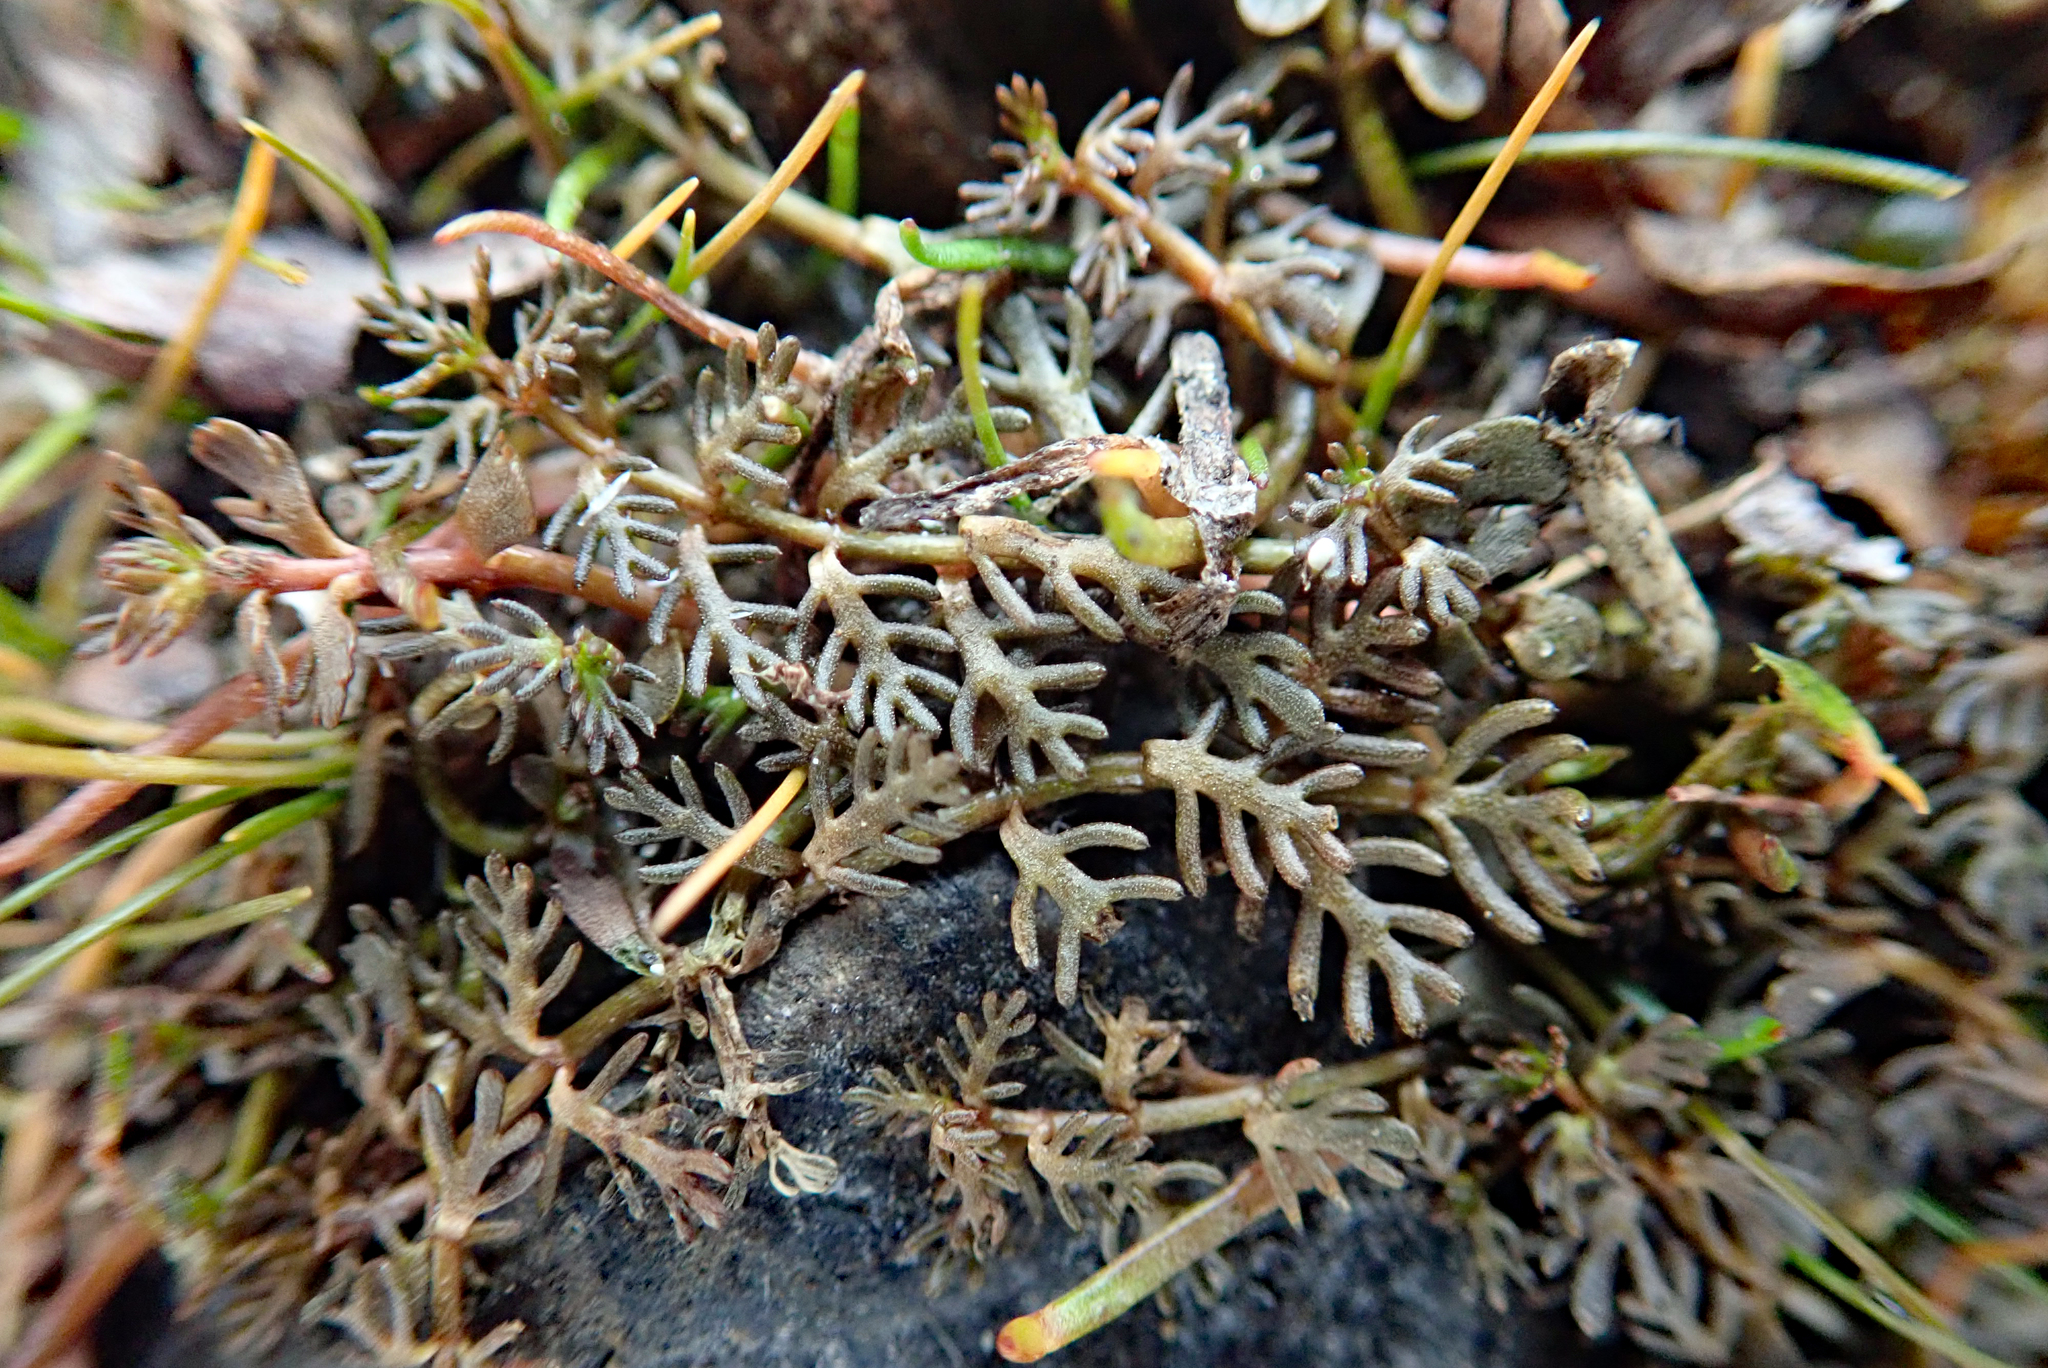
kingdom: Plantae
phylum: Tracheophyta
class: Magnoliopsida
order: Saxifragales
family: Haloragaceae
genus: Myriophyllum
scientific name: Myriophyllum triphyllum
